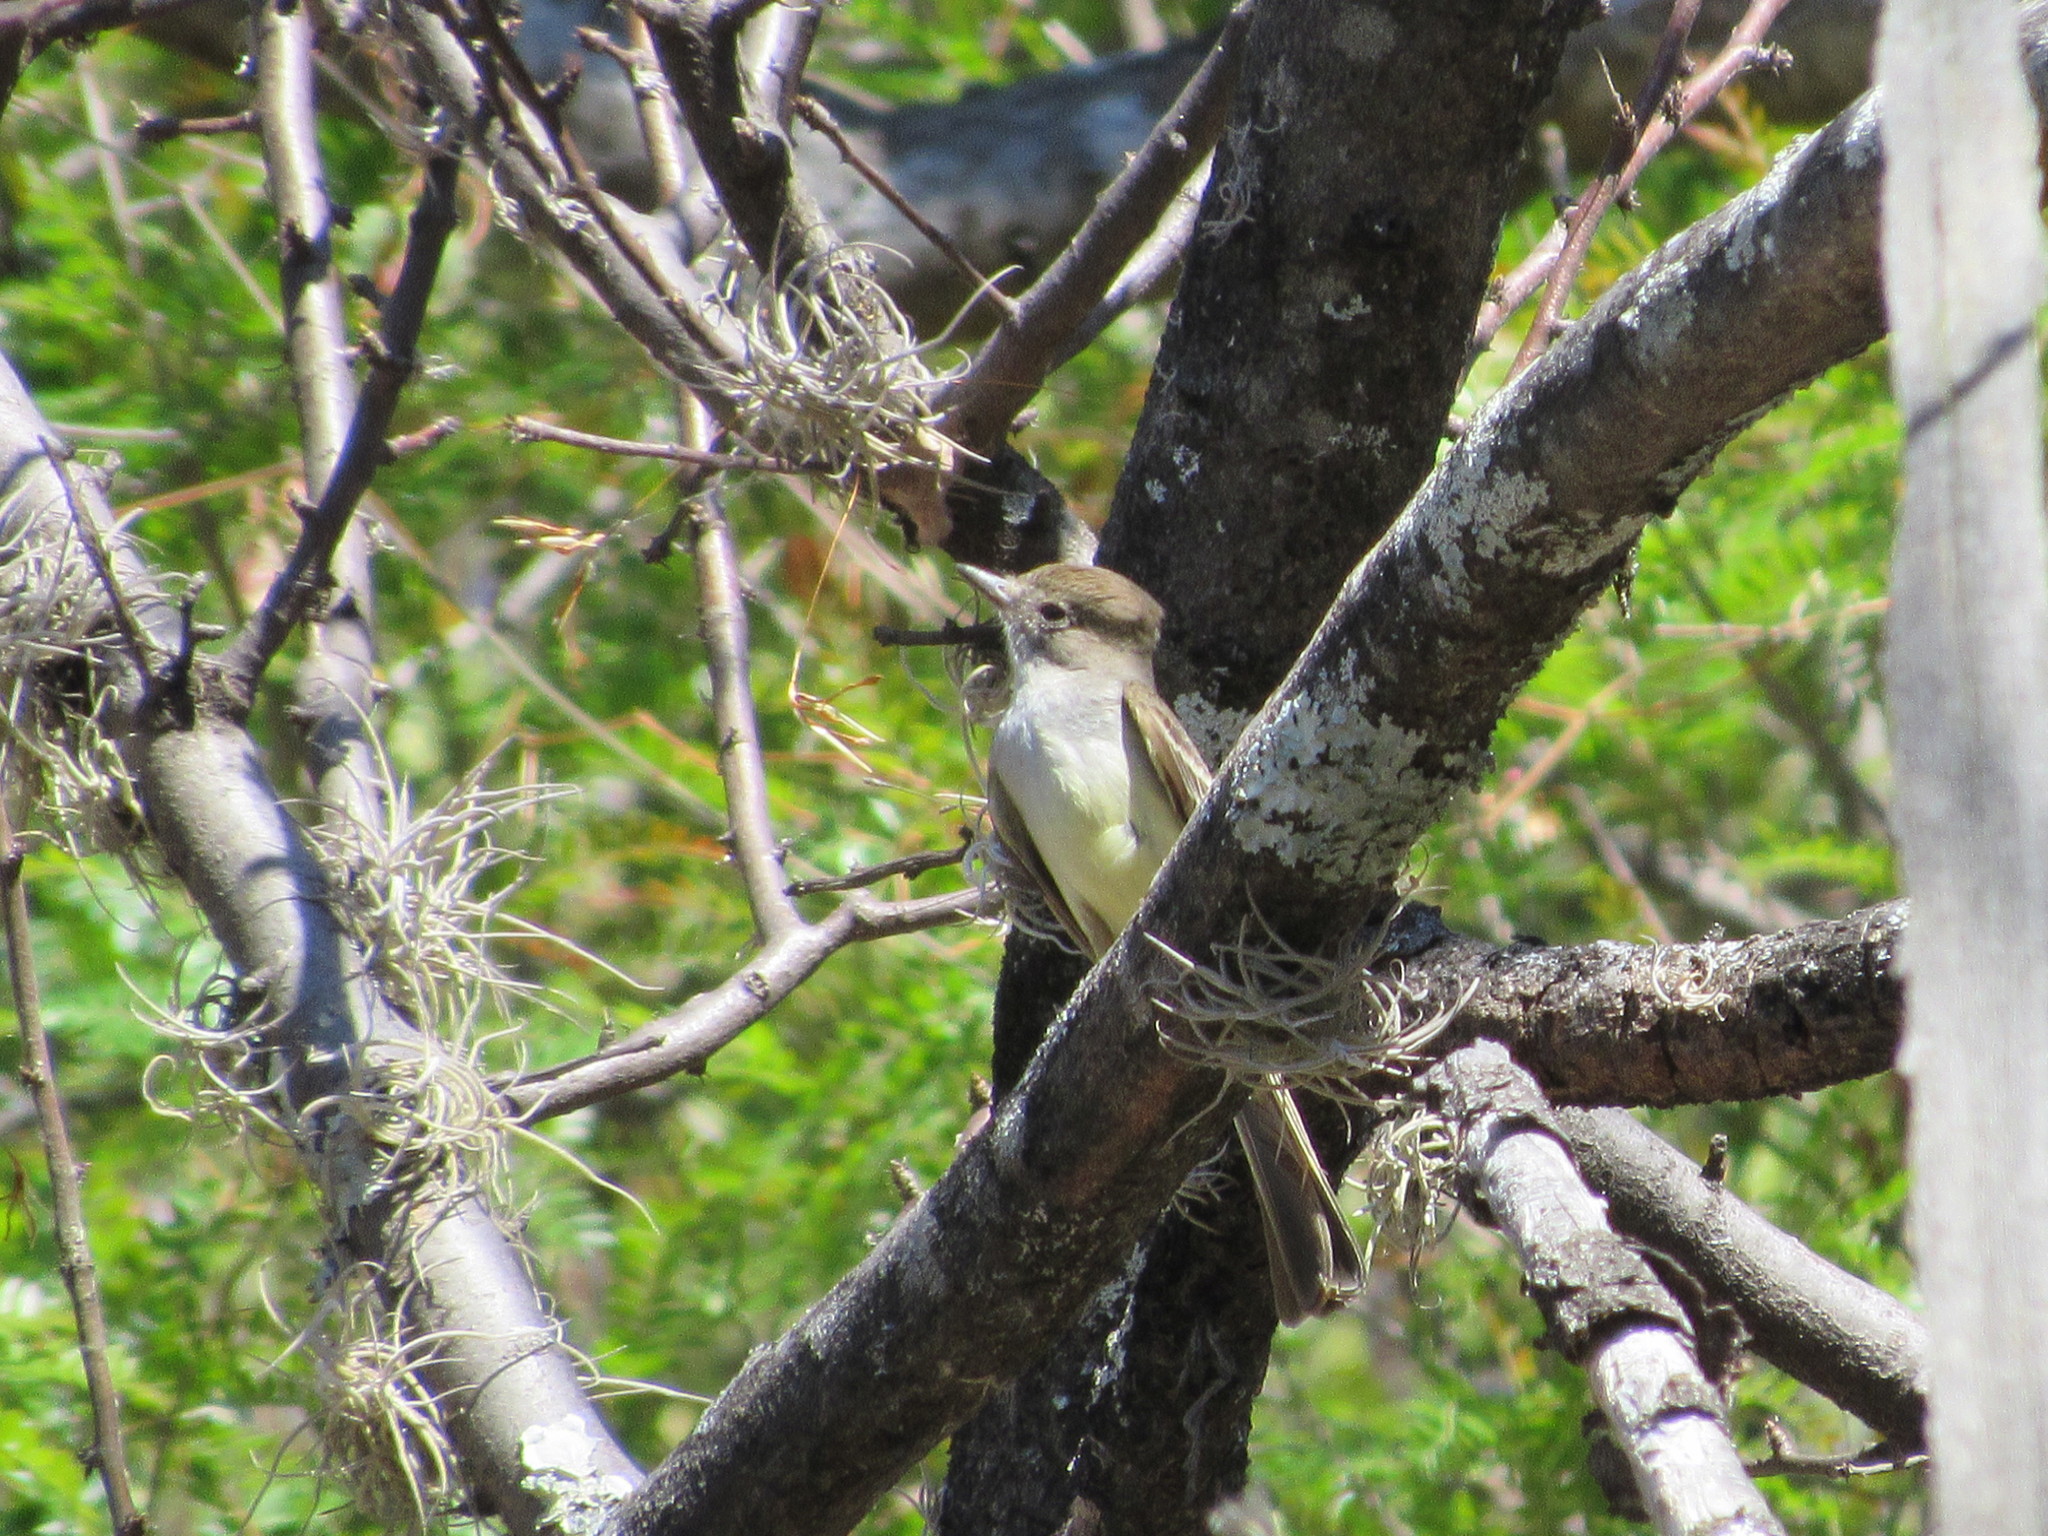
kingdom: Animalia
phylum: Chordata
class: Aves
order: Passeriformes
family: Tyrannidae
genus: Myiarchus
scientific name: Myiarchus tuberculifer
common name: Dusky-capped flycatcher
